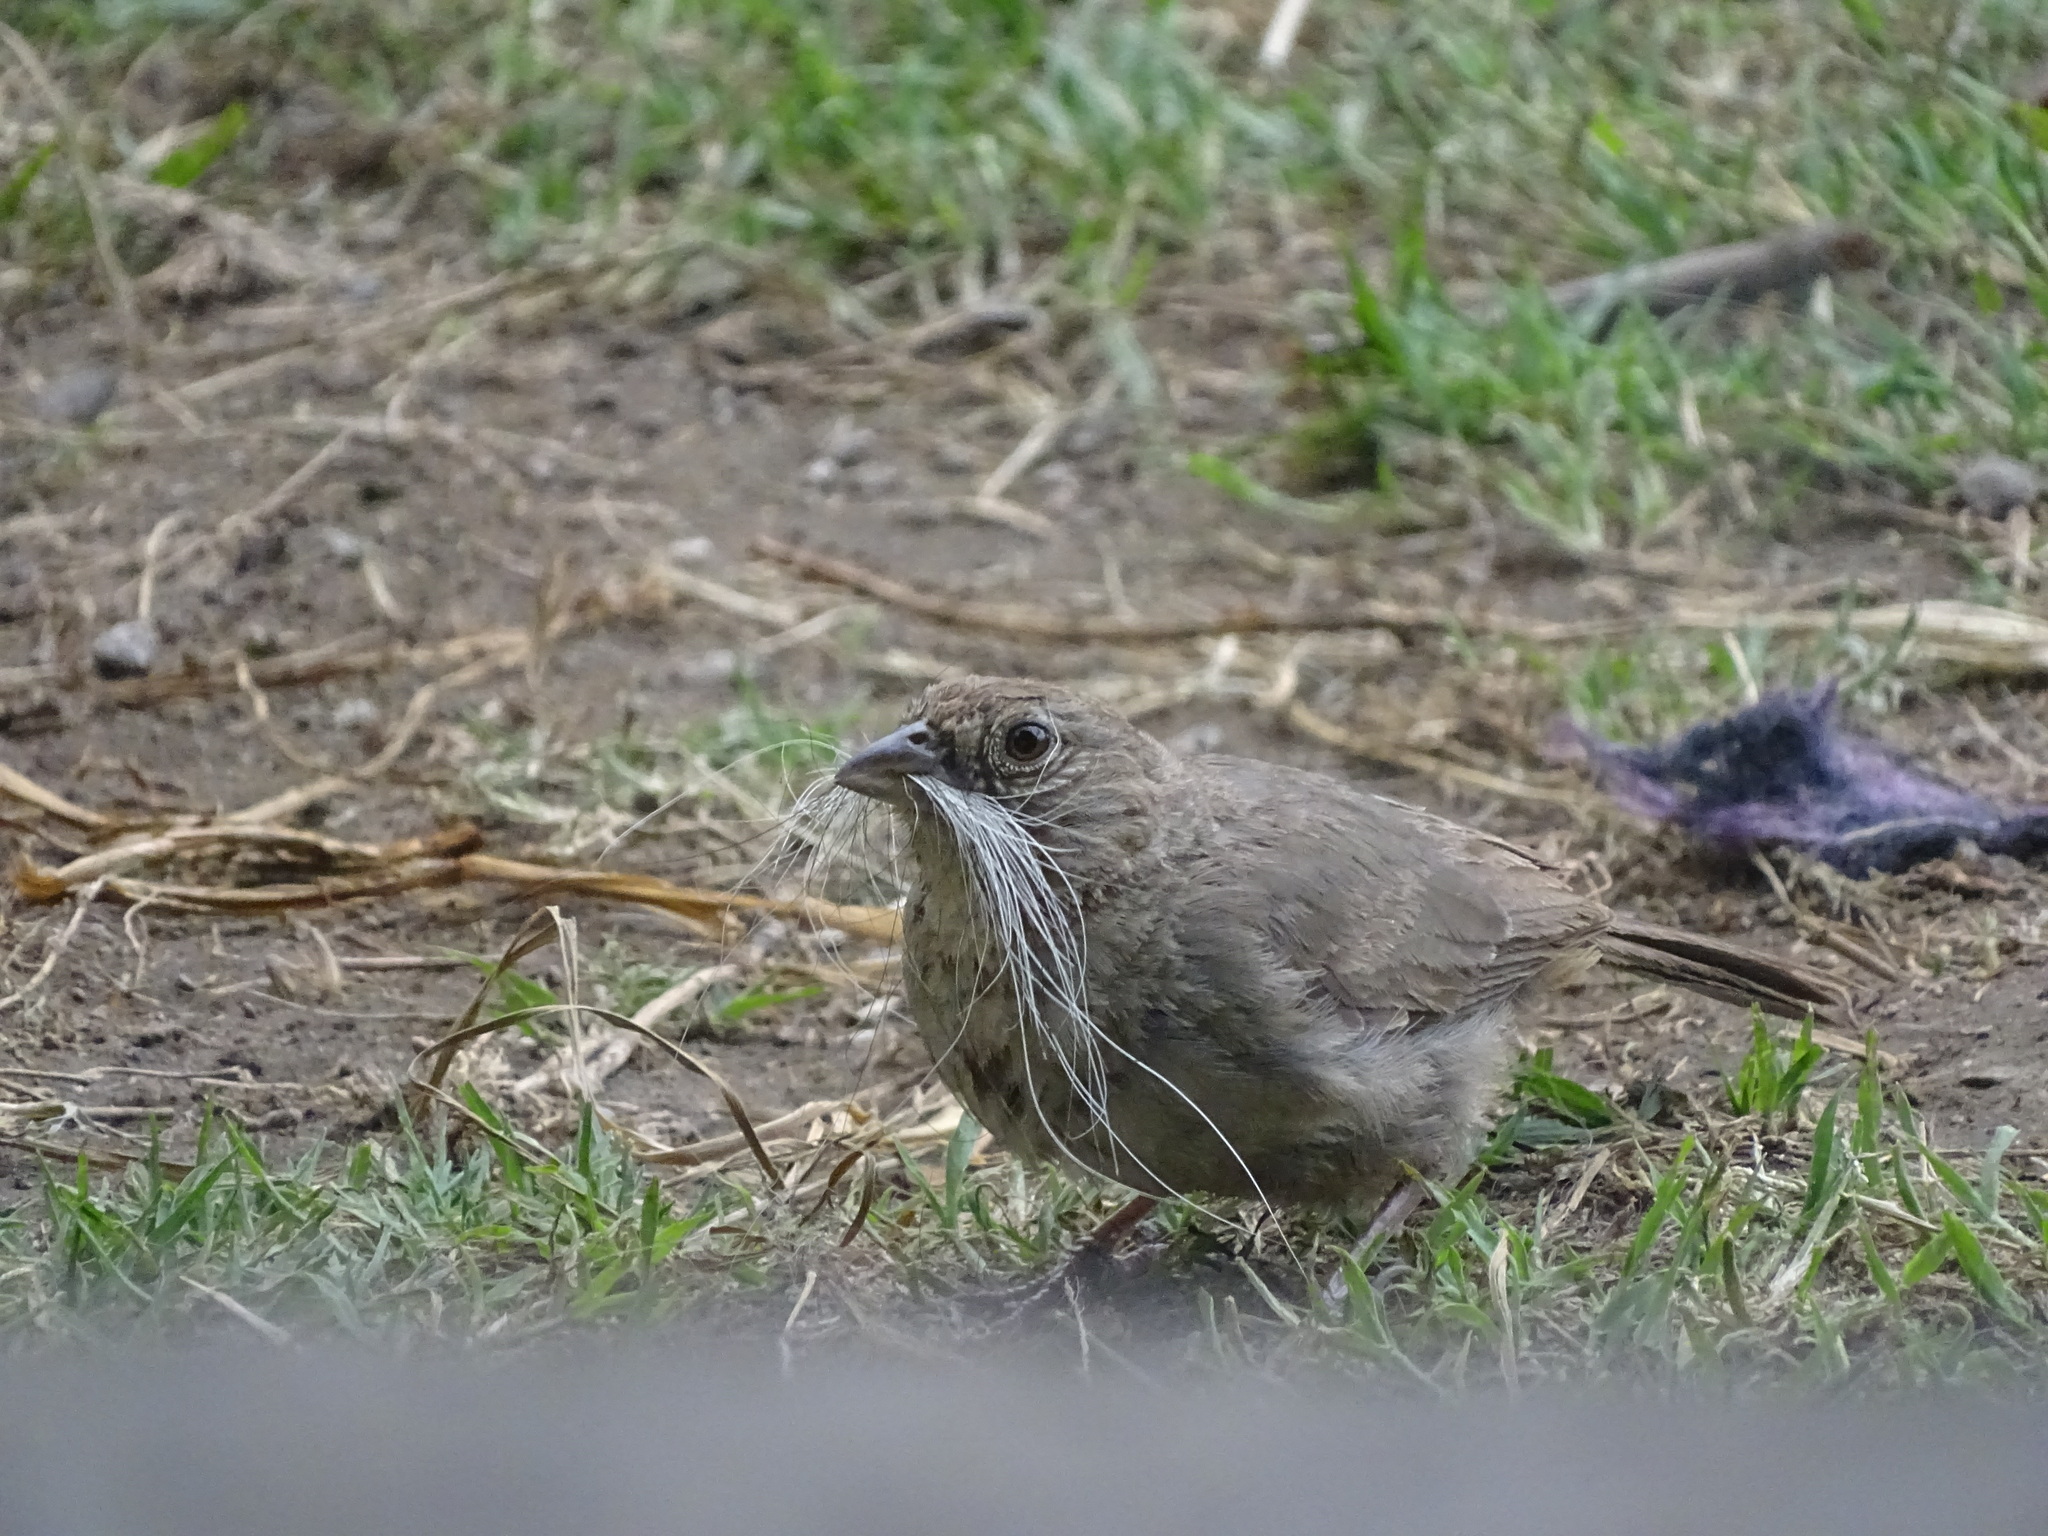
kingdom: Animalia
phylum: Chordata
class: Aves
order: Passeriformes
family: Passerellidae
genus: Melozone
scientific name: Melozone fusca
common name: Canyon towhee
